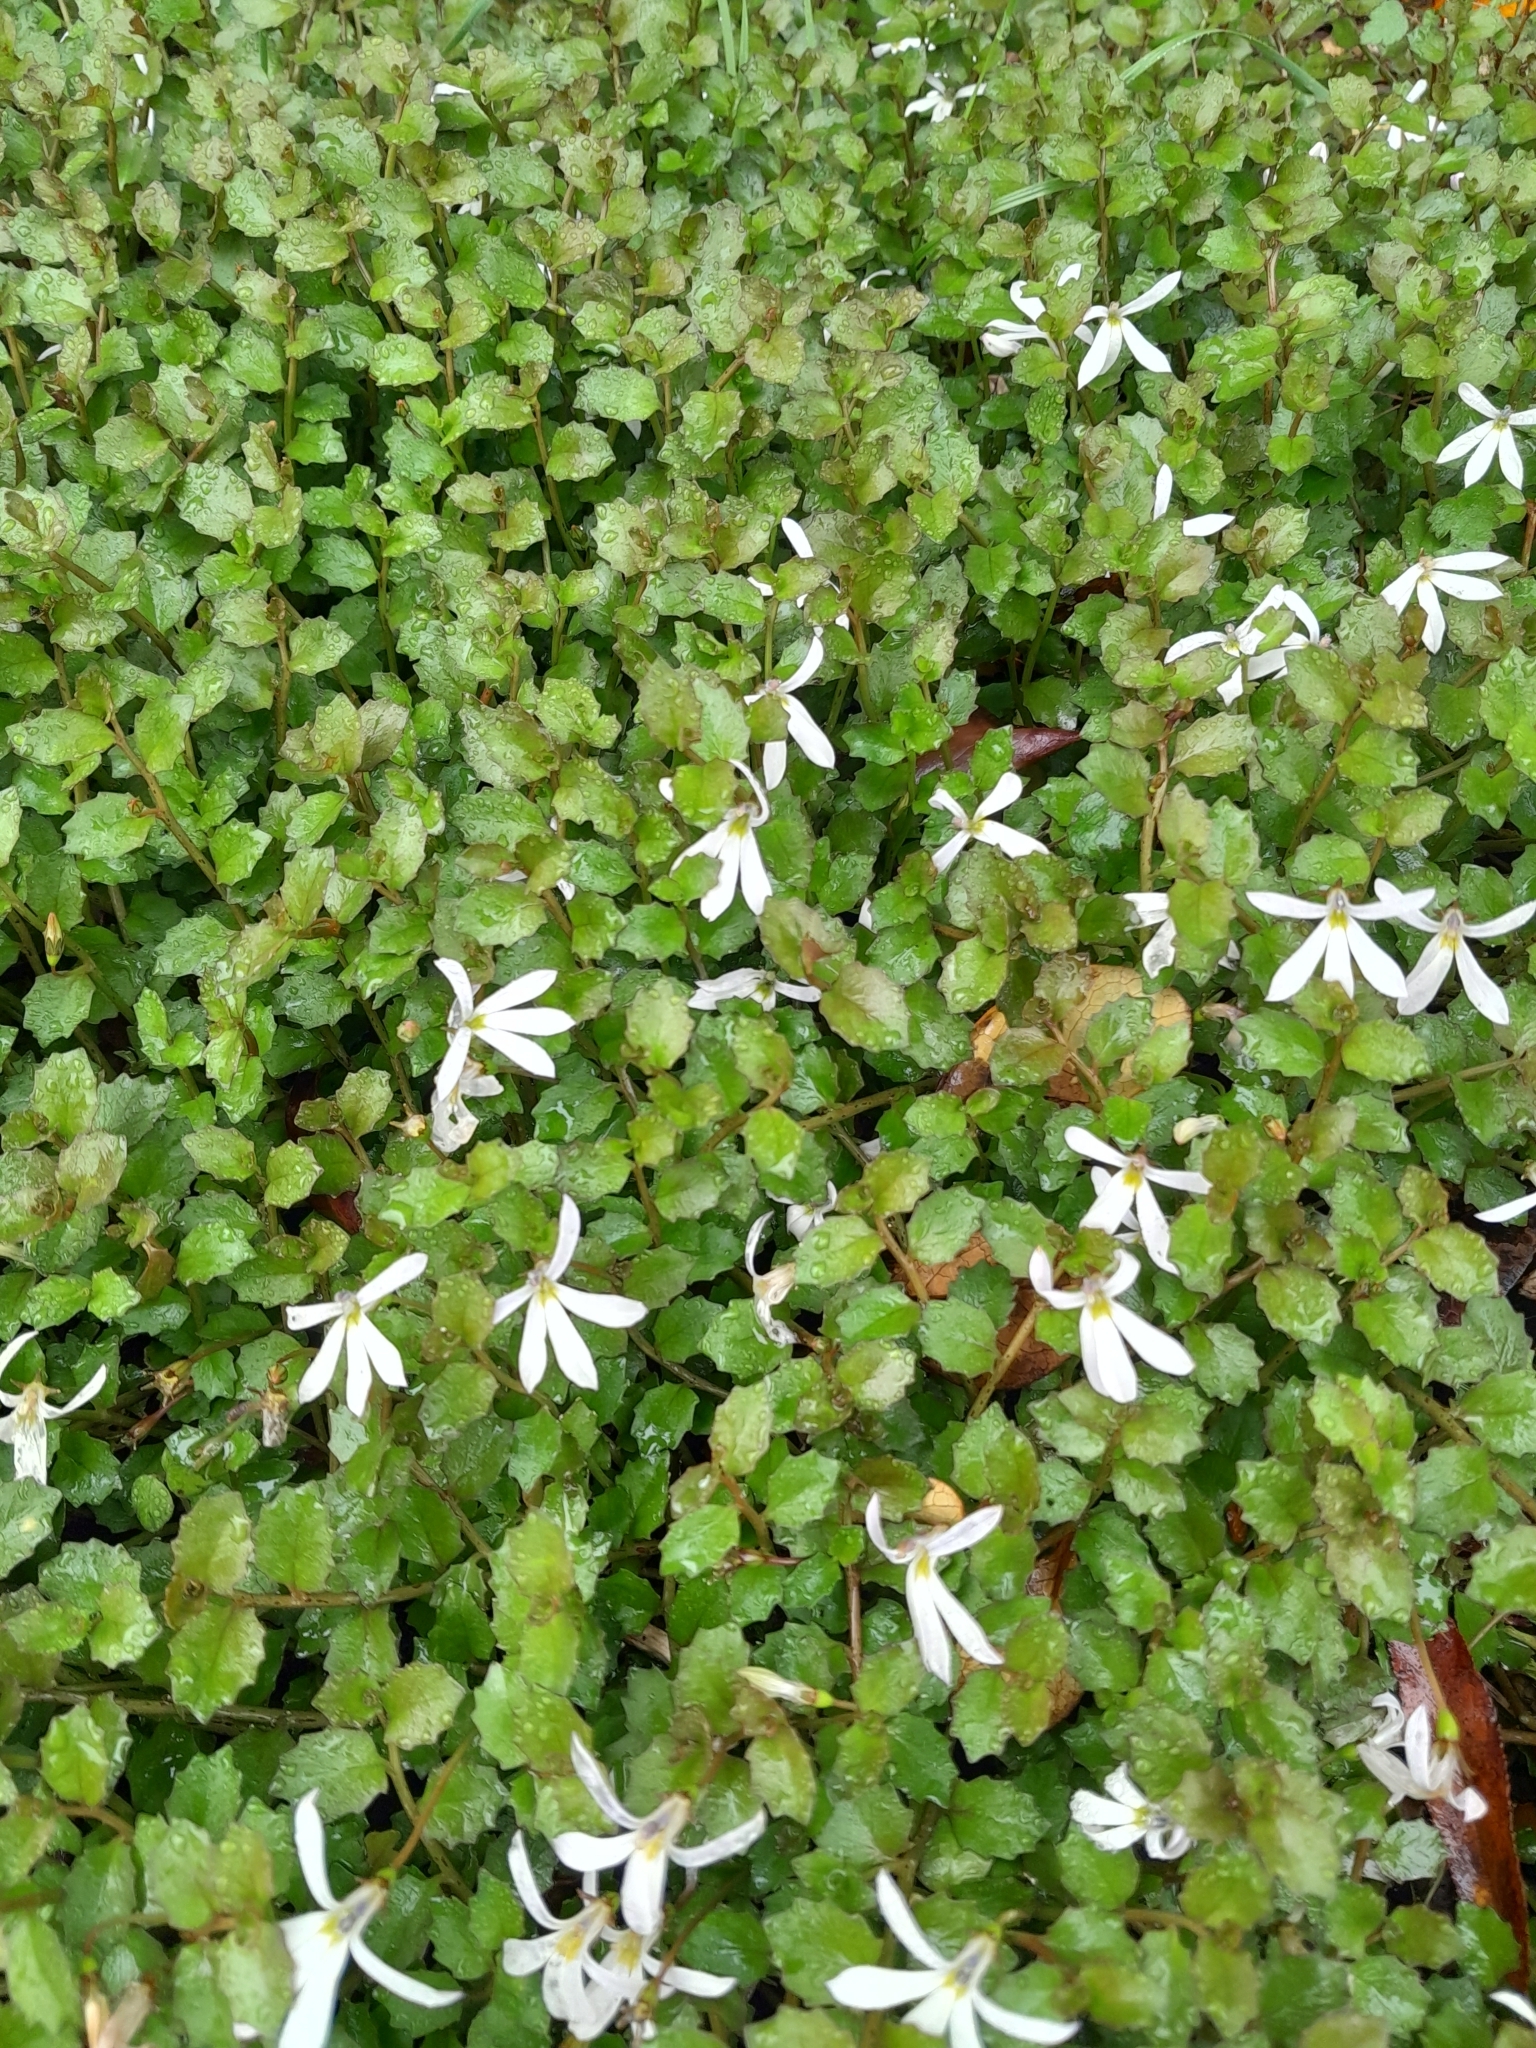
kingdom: Plantae
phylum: Tracheophyta
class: Magnoliopsida
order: Asterales
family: Campanulaceae
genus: Lobelia
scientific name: Lobelia angulata
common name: Lawn lobelia
